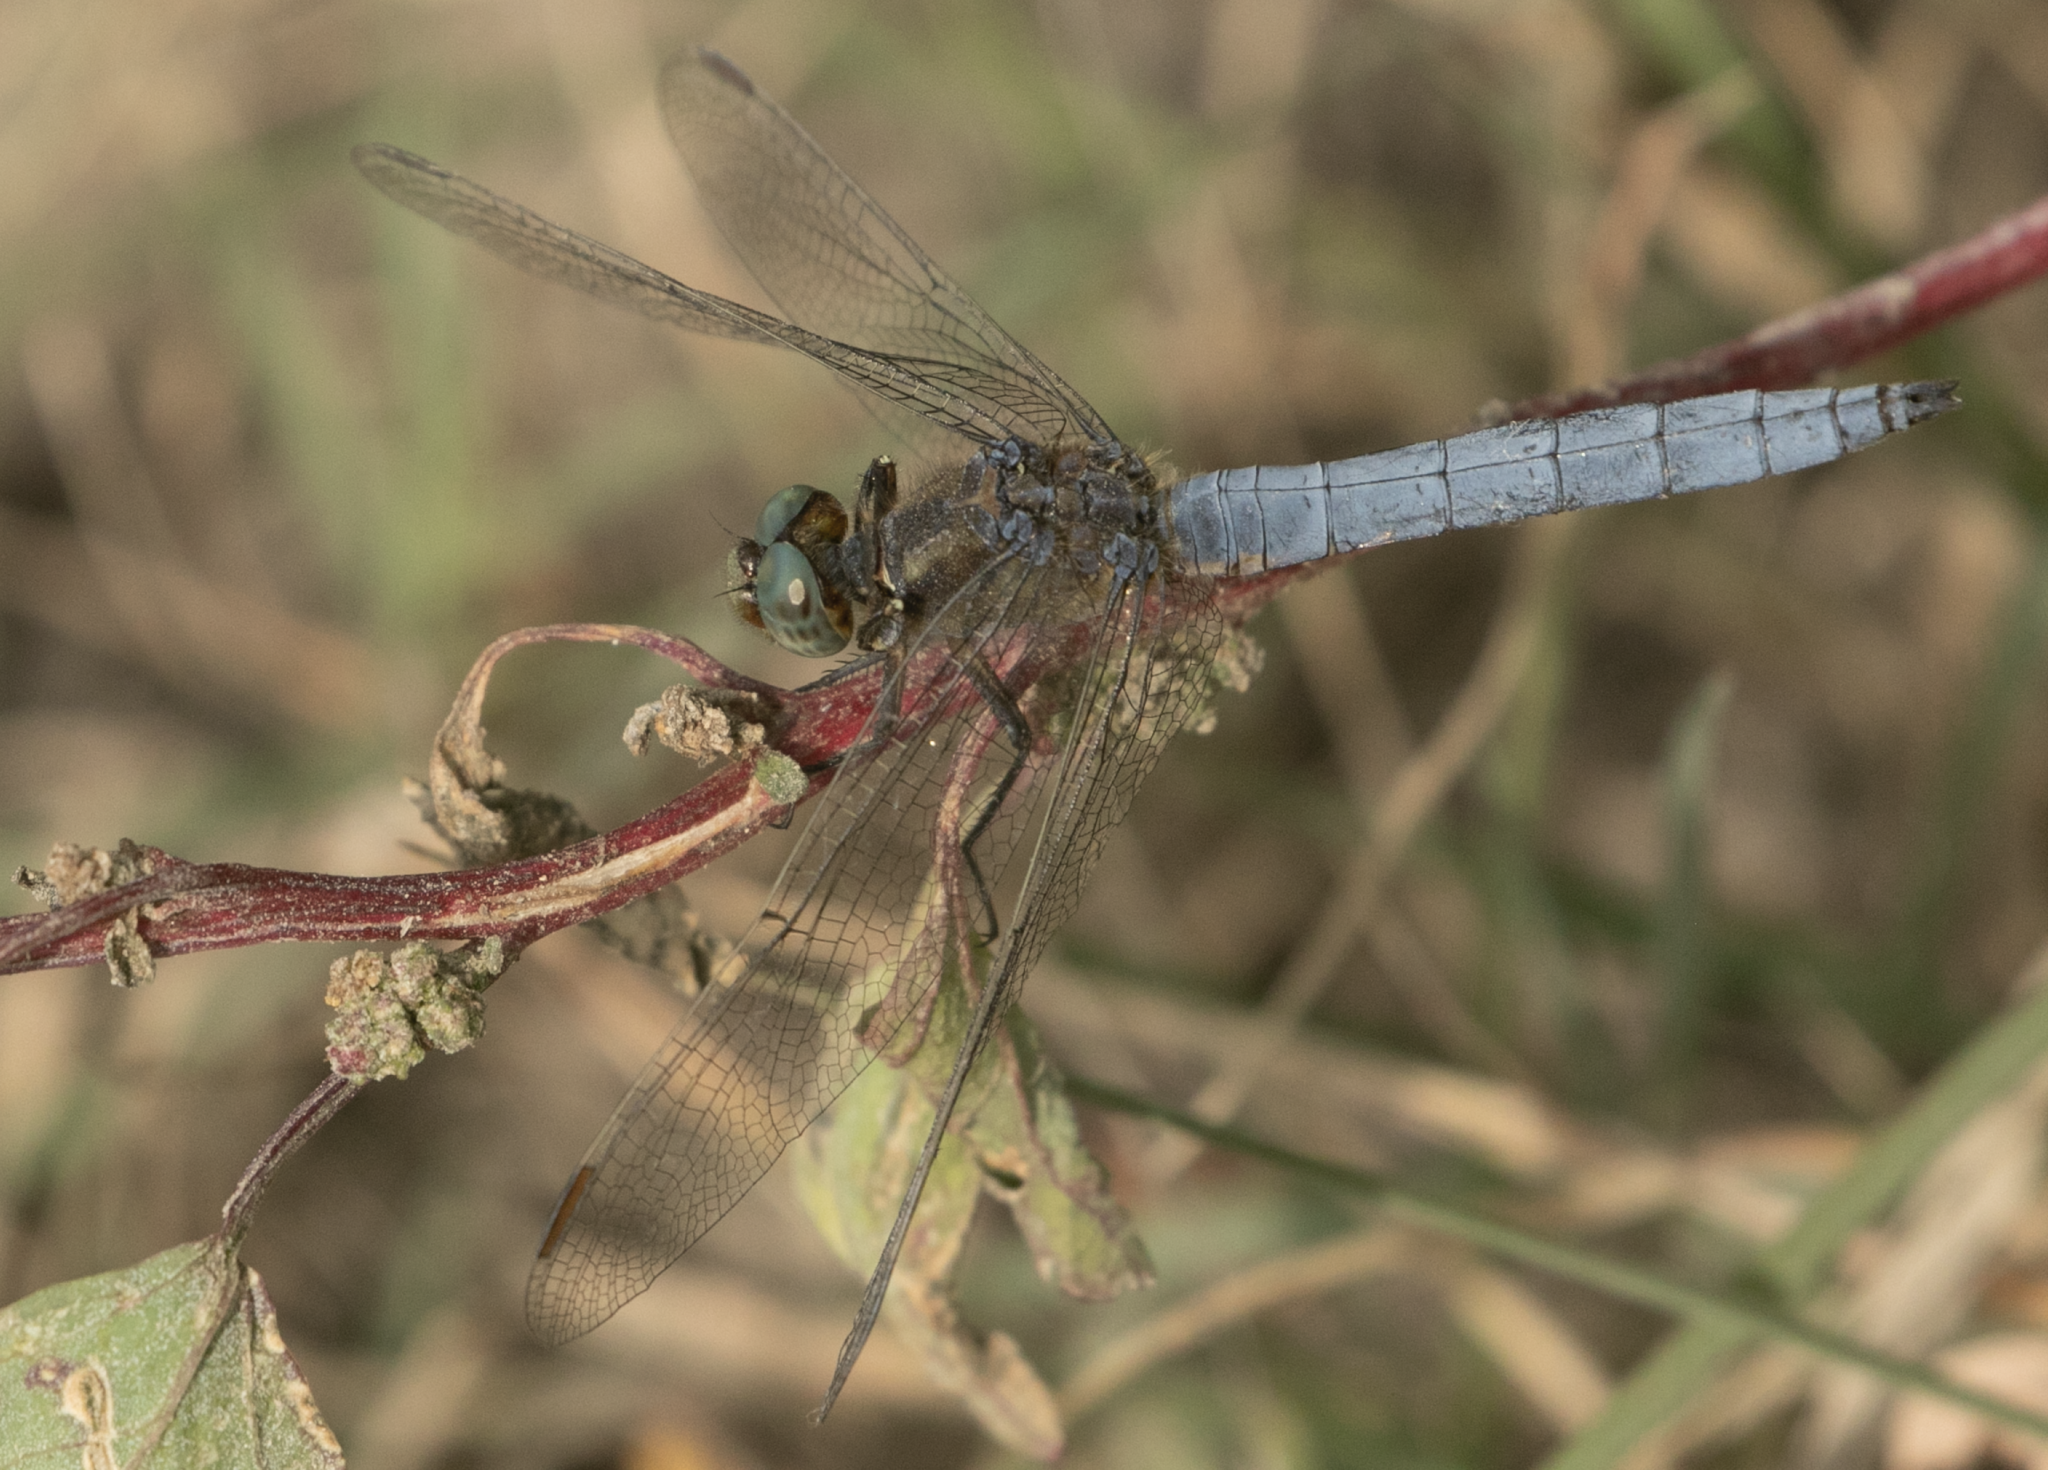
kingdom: Animalia
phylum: Arthropoda
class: Insecta
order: Odonata
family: Libellulidae
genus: Orthetrum
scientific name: Orthetrum coerulescens
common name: Keeled skimmer
